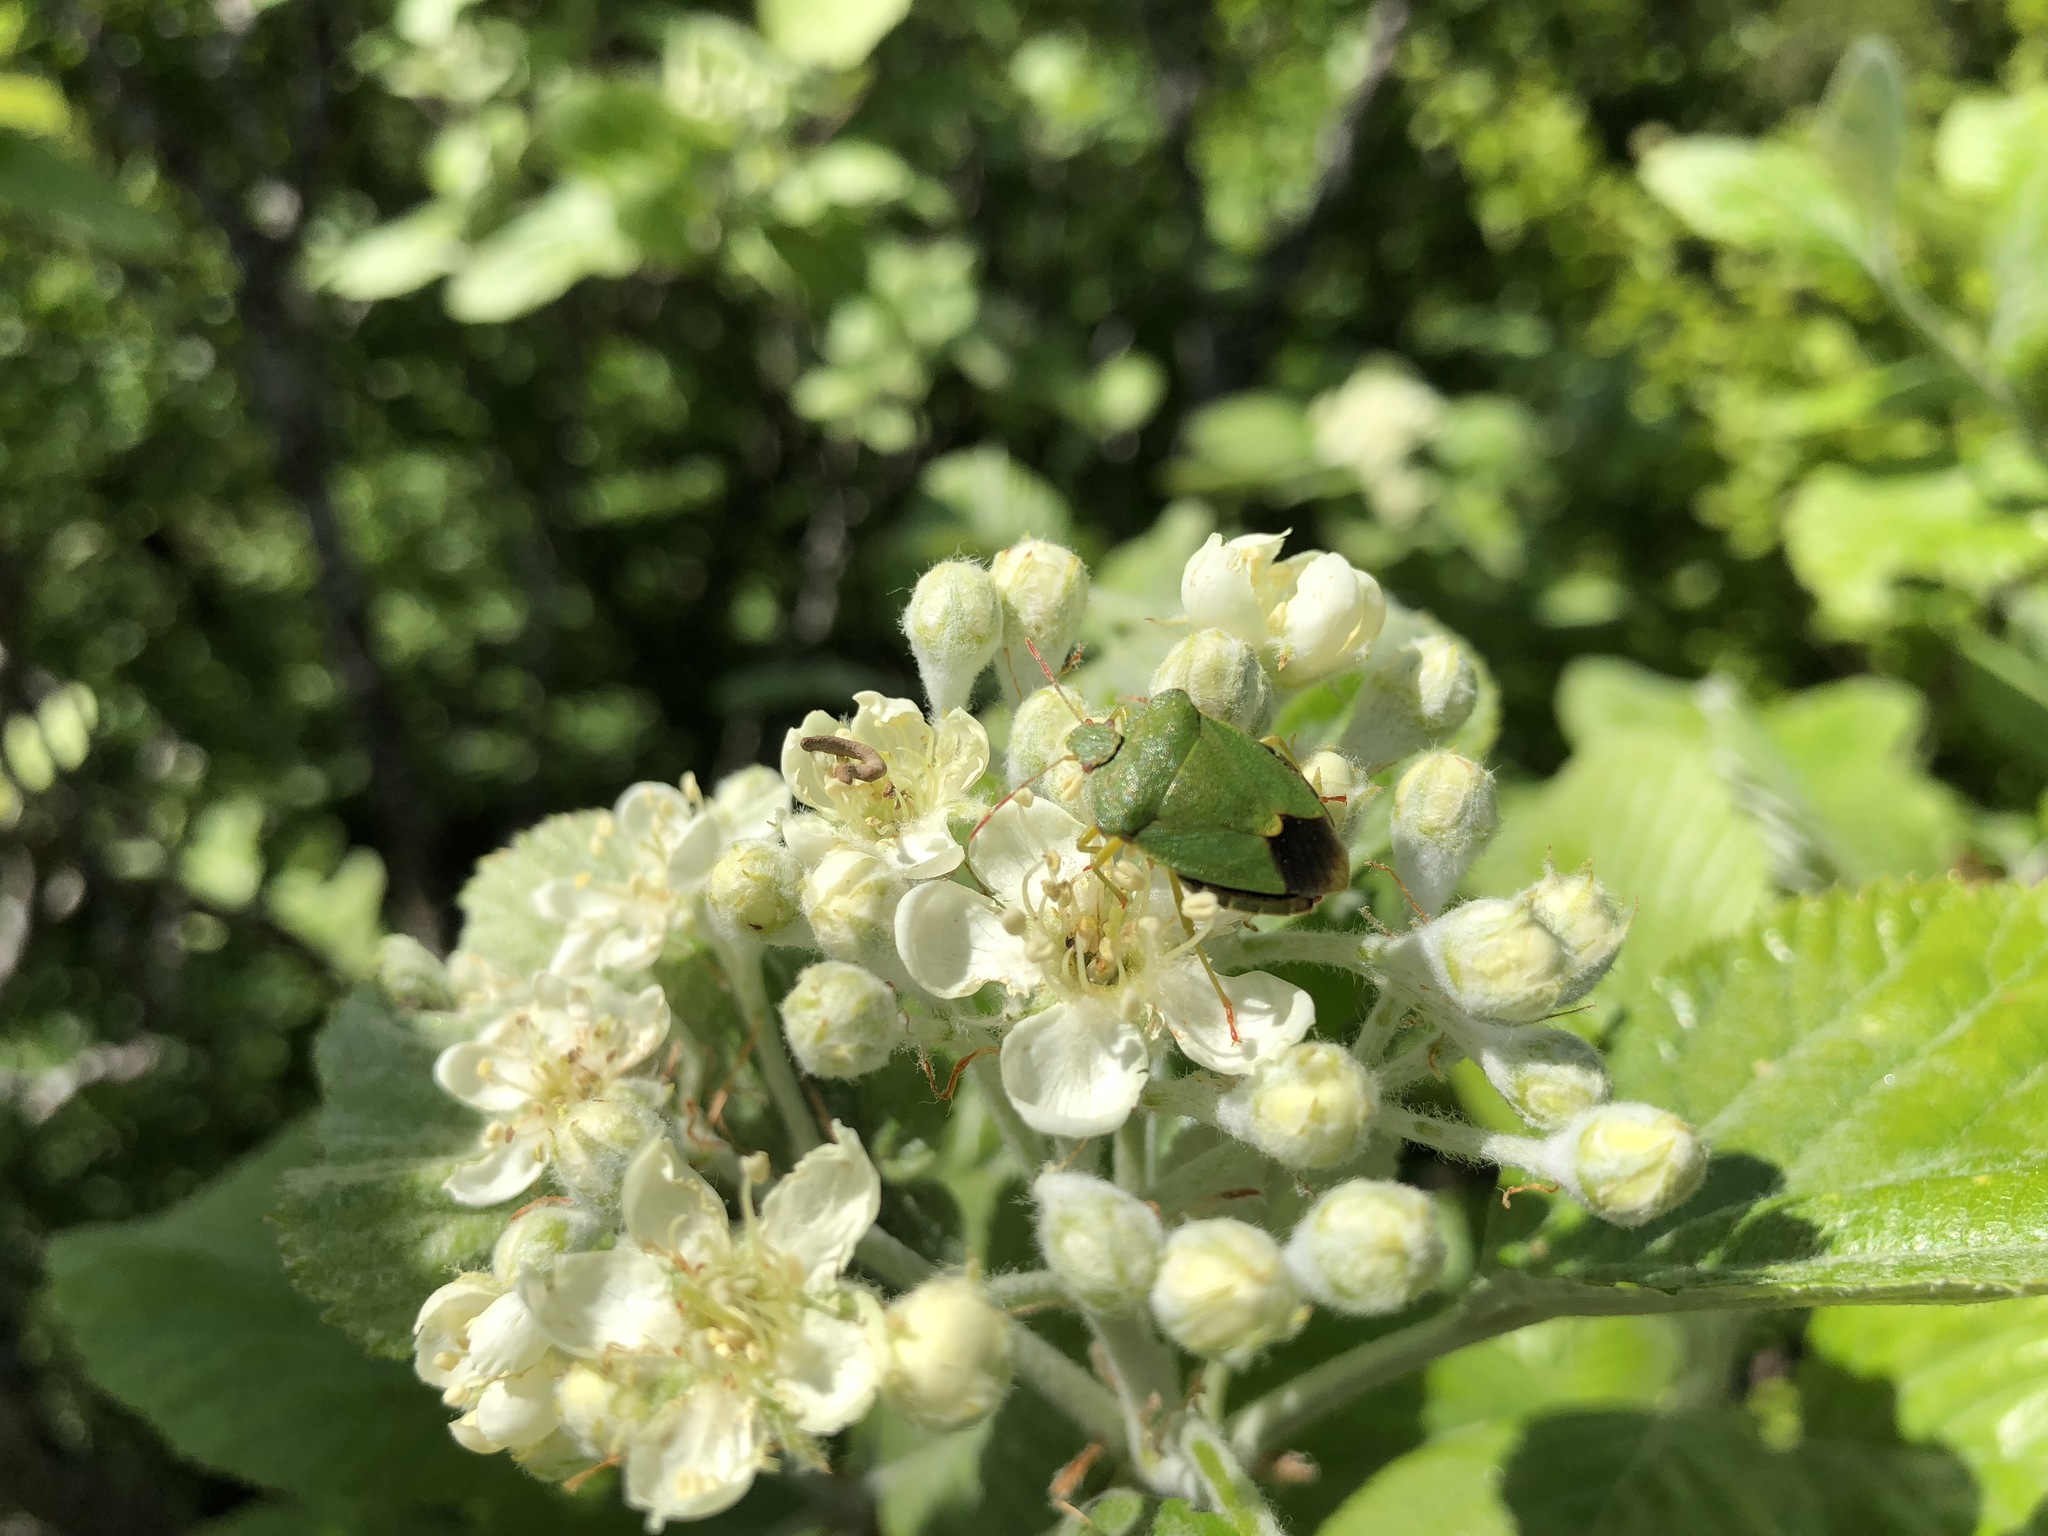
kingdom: Animalia
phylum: Arthropoda
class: Insecta
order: Hemiptera
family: Pentatomidae
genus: Palomena
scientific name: Palomena prasina
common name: Green shieldbug
